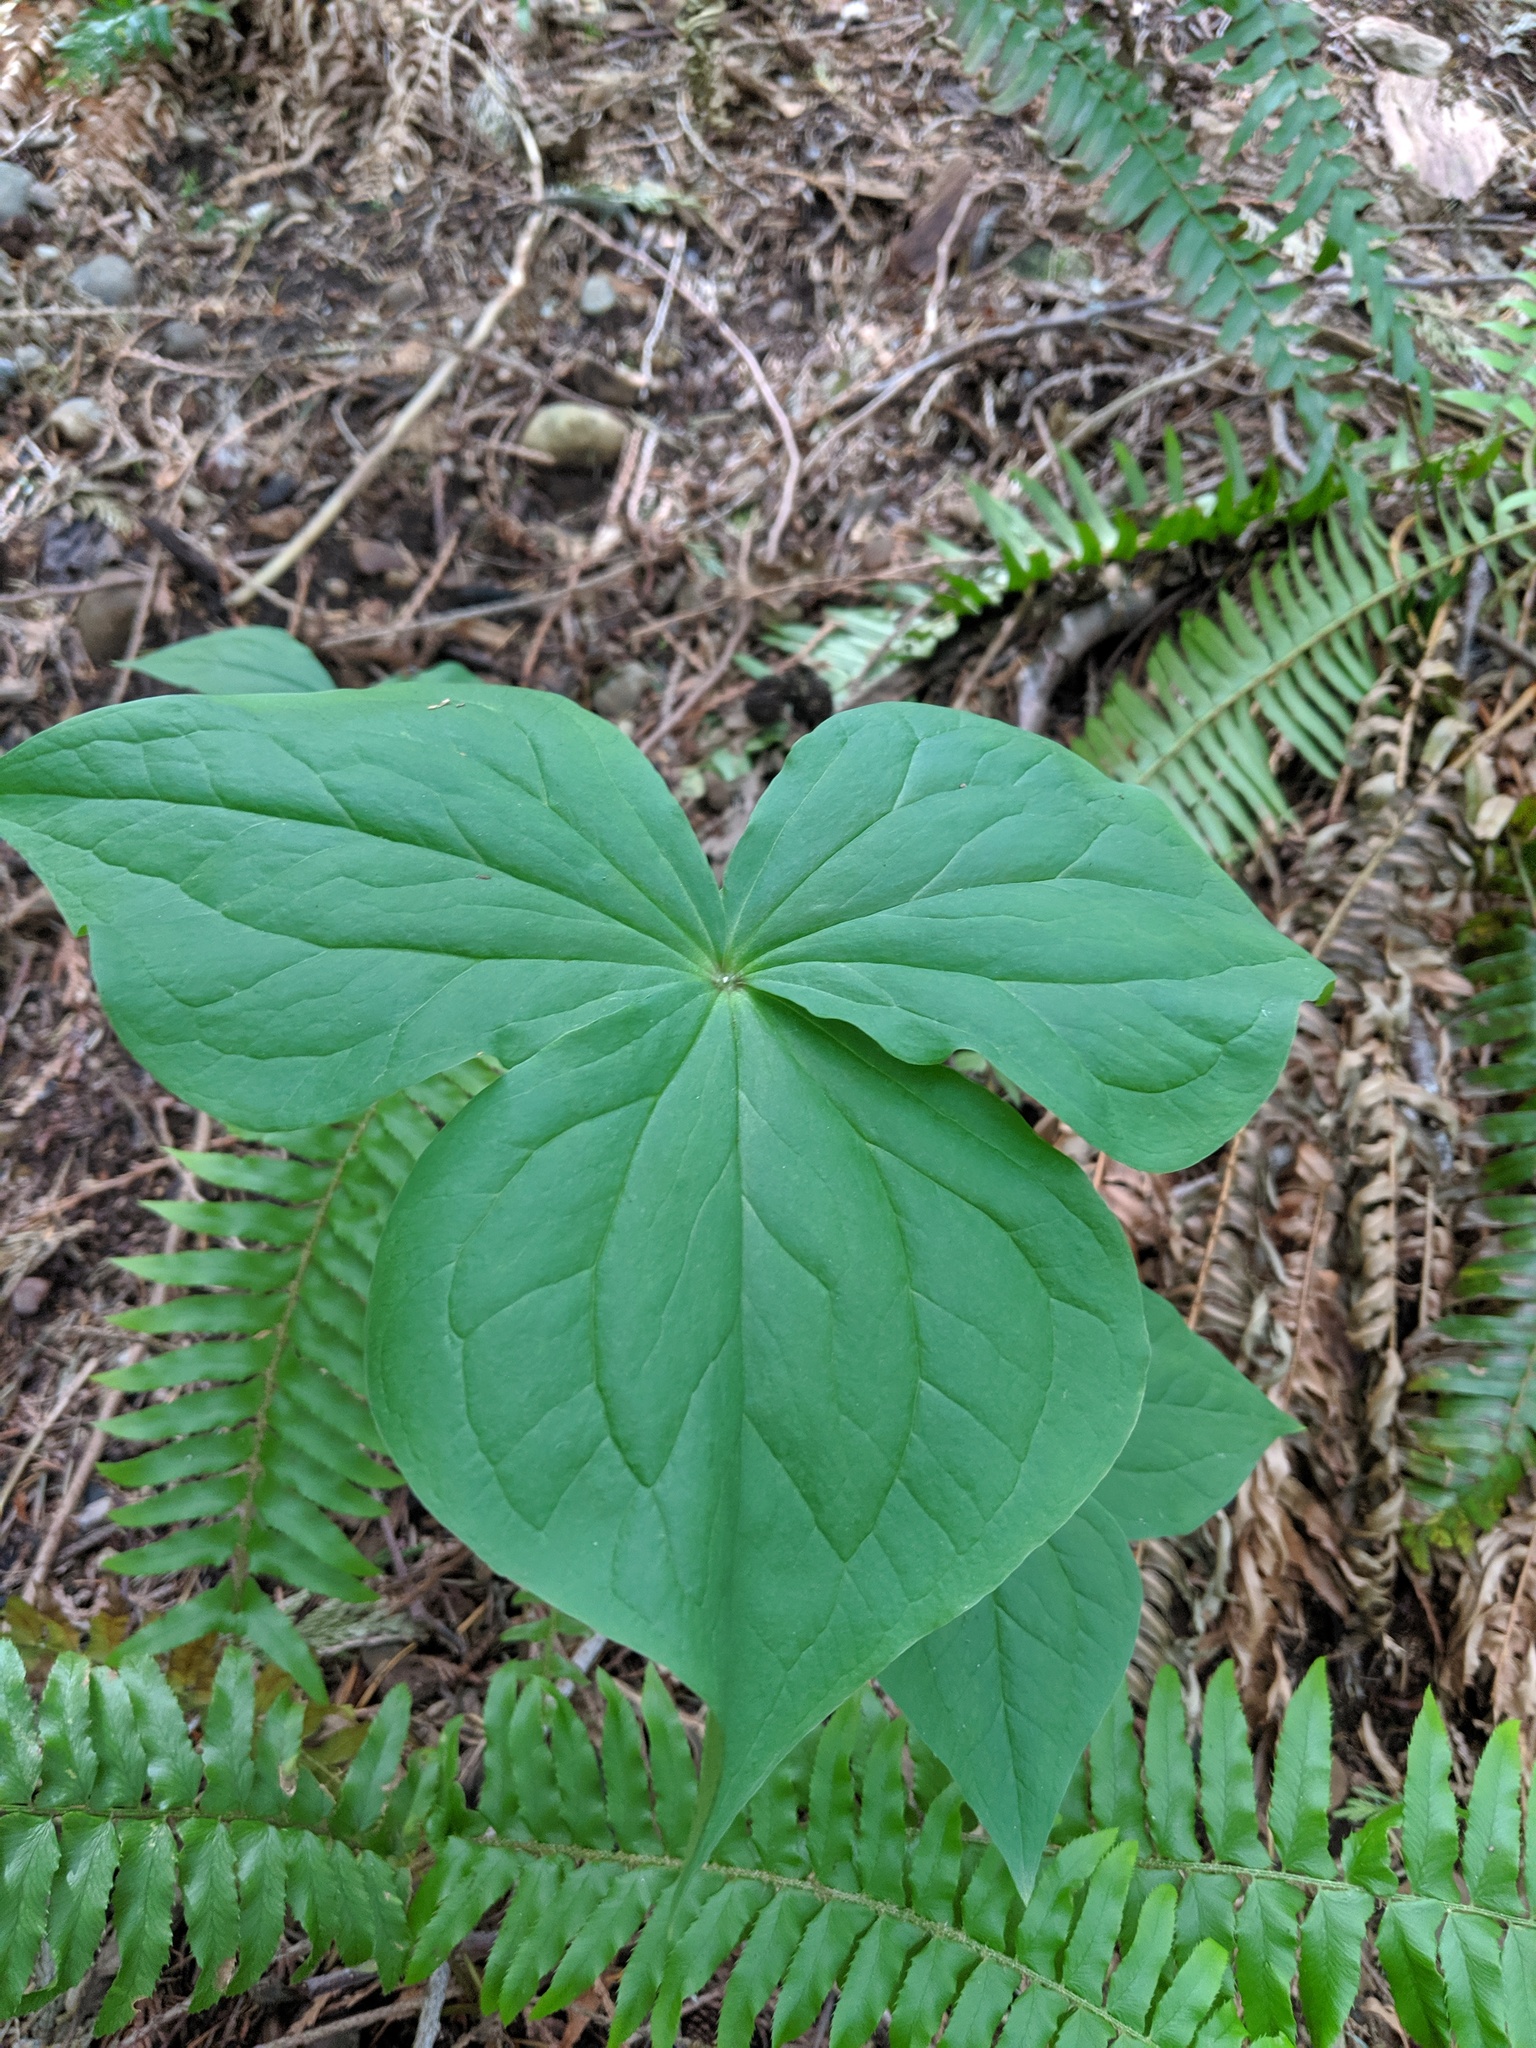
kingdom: Plantae
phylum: Tracheophyta
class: Liliopsida
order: Liliales
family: Melanthiaceae
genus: Trillium
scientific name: Trillium ovatum
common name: Pacific trillium
